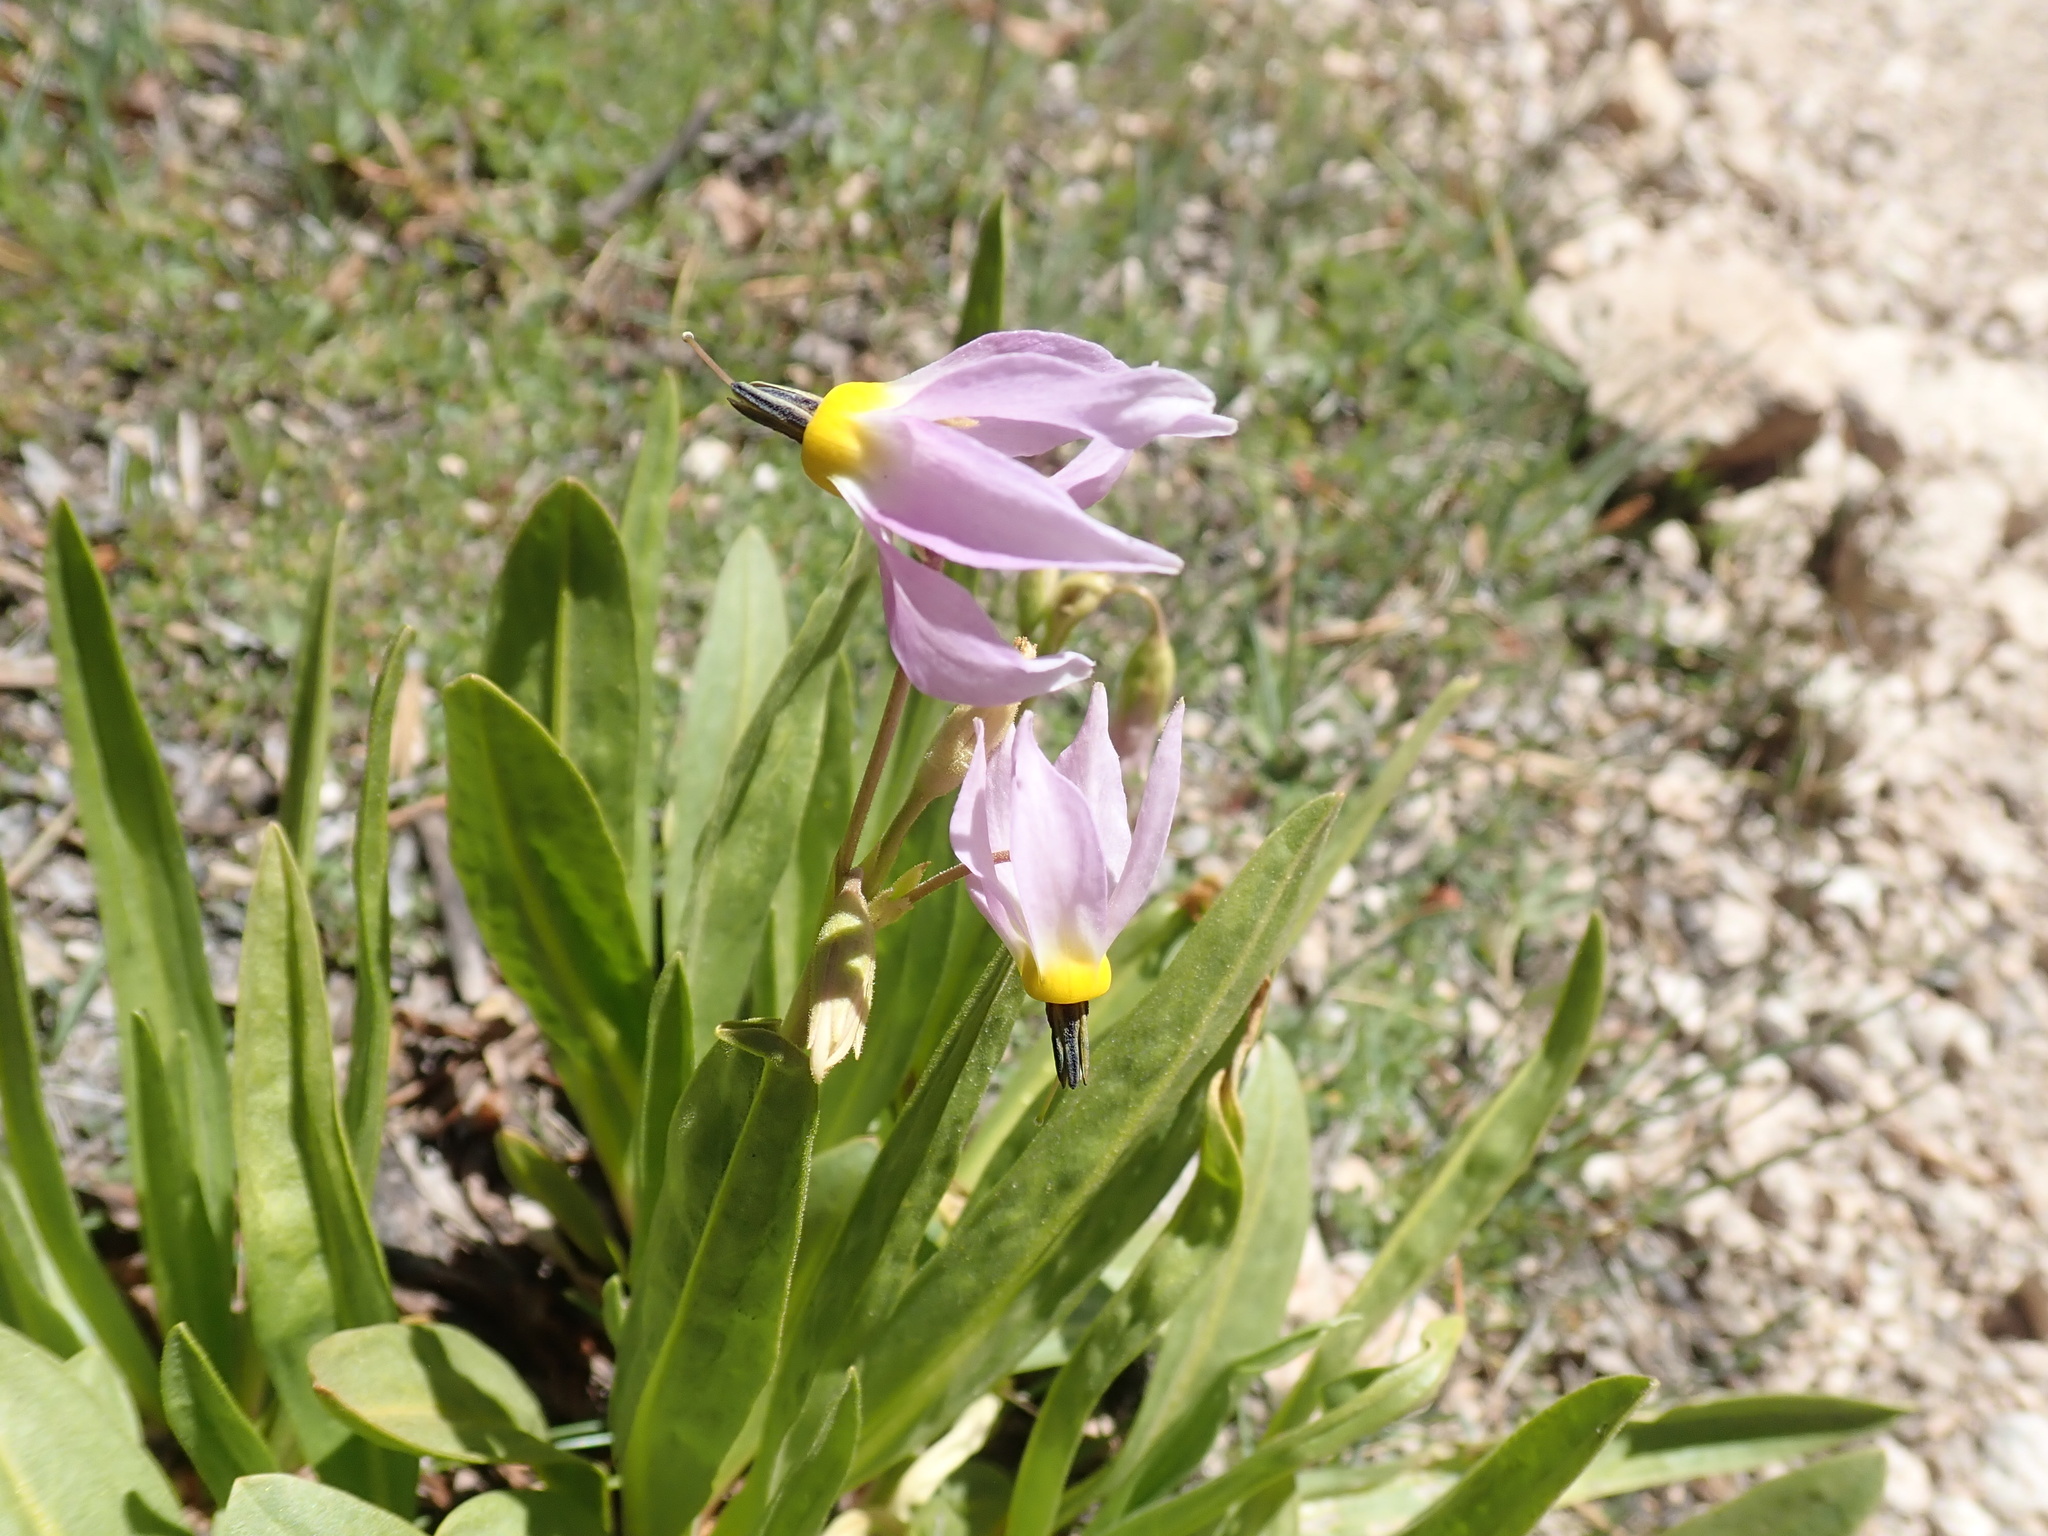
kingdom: Plantae
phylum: Tracheophyta
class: Magnoliopsida
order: Ericales
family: Primulaceae
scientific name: Primulaceae
